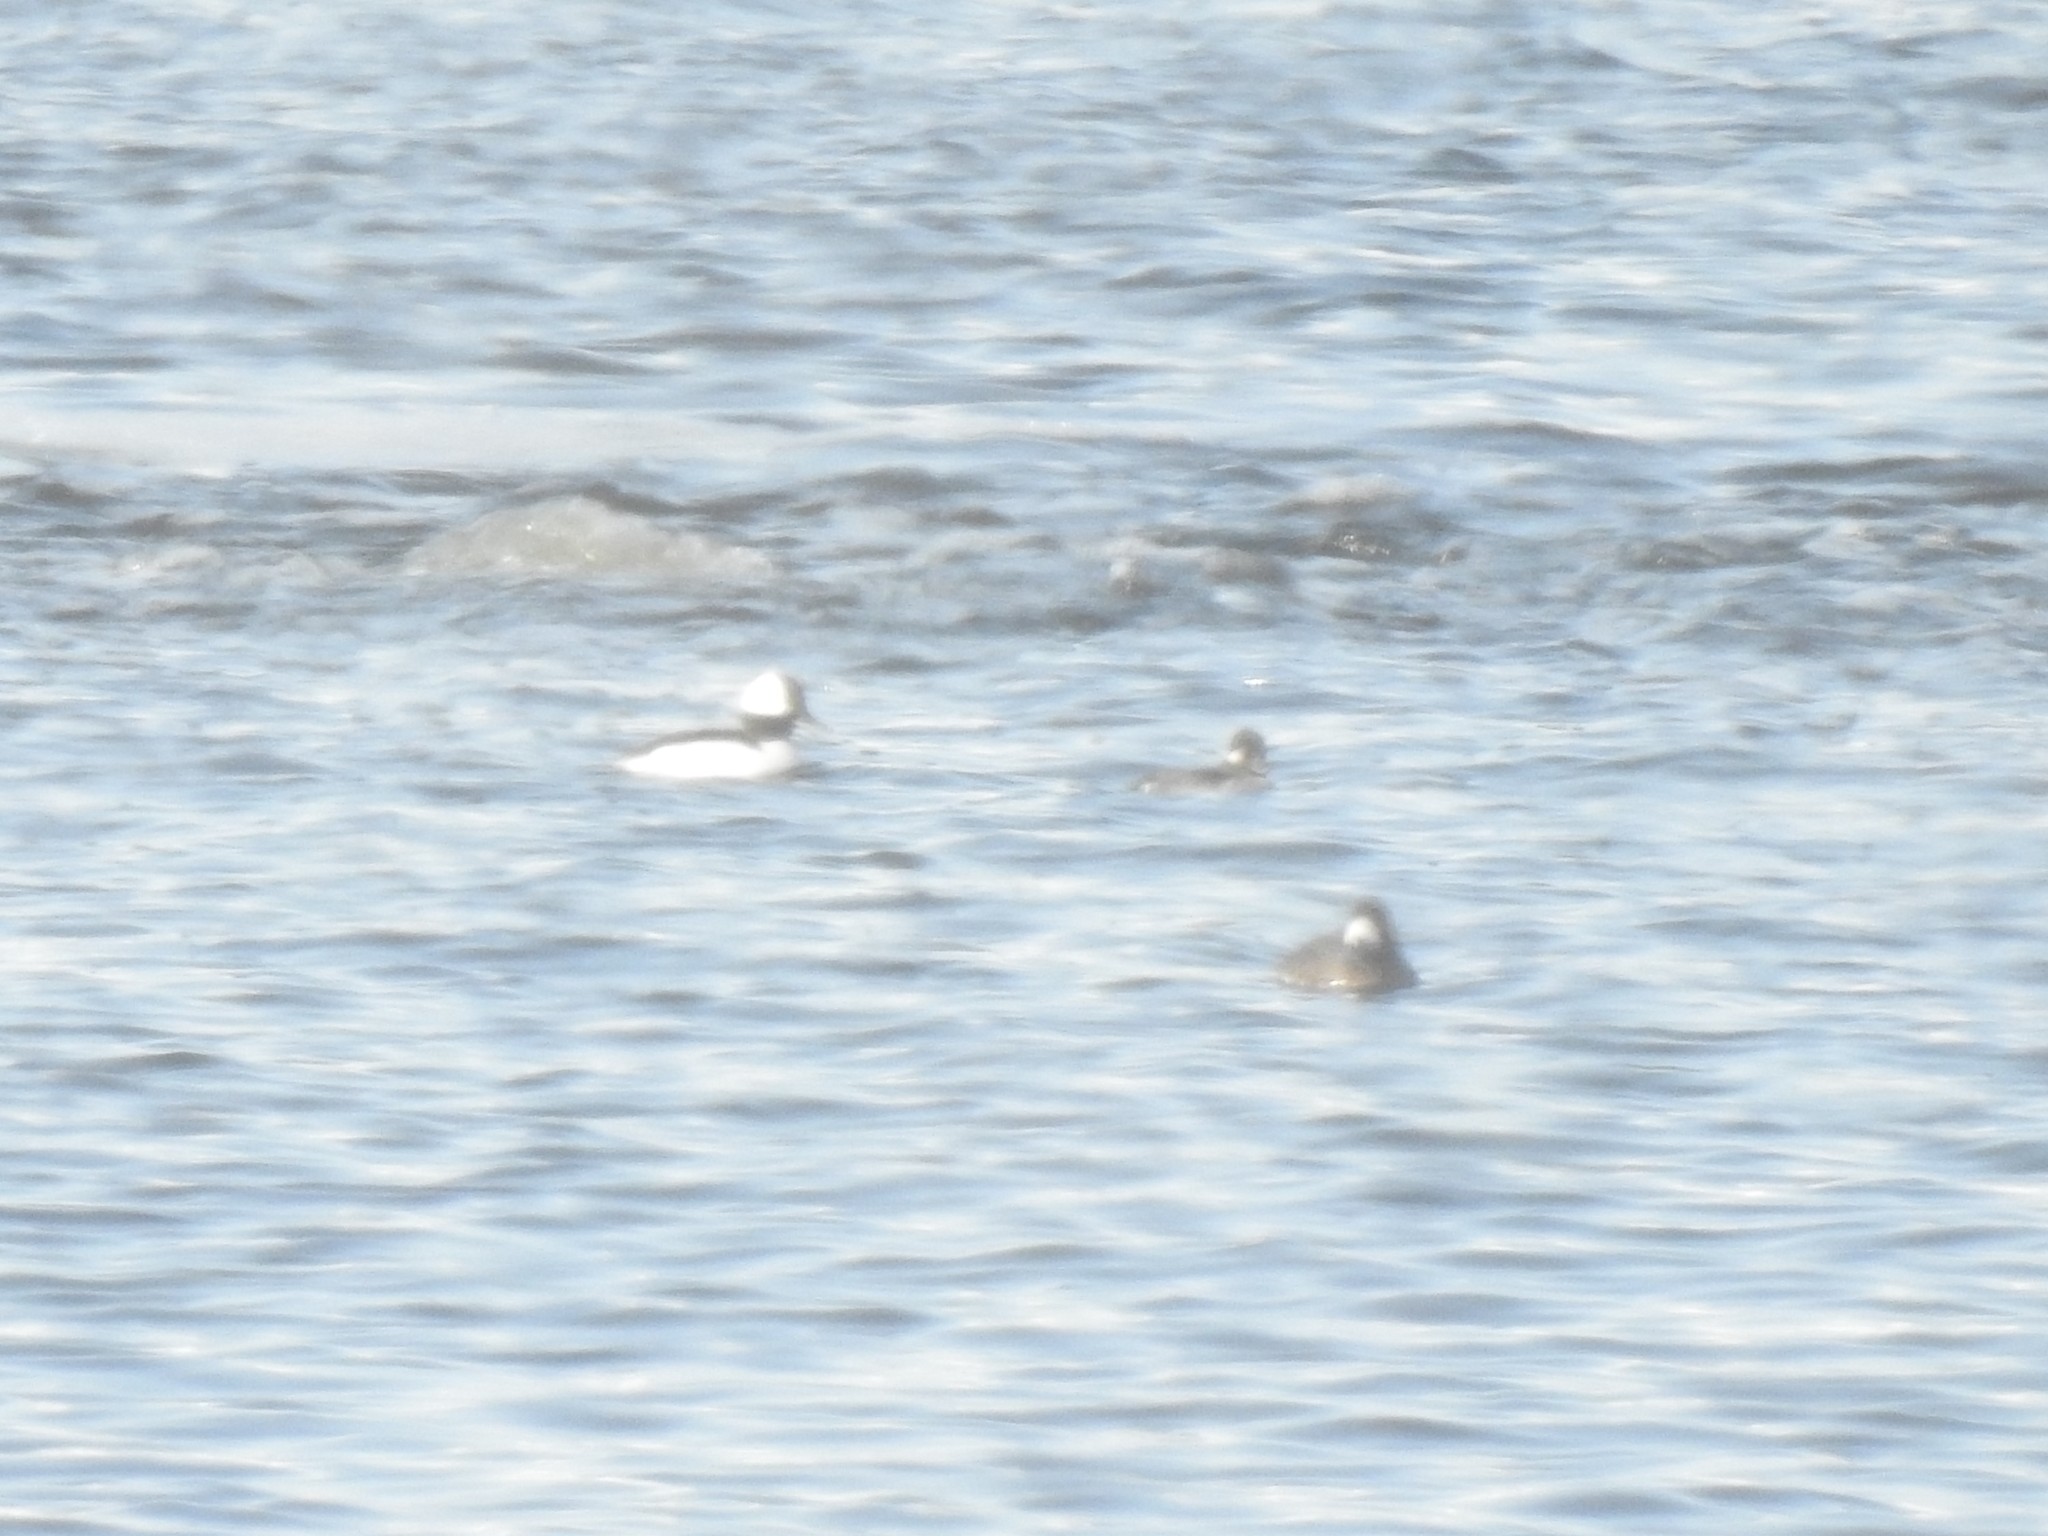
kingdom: Animalia
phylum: Chordata
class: Aves
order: Anseriformes
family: Anatidae
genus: Bucephala
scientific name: Bucephala albeola
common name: Bufflehead
